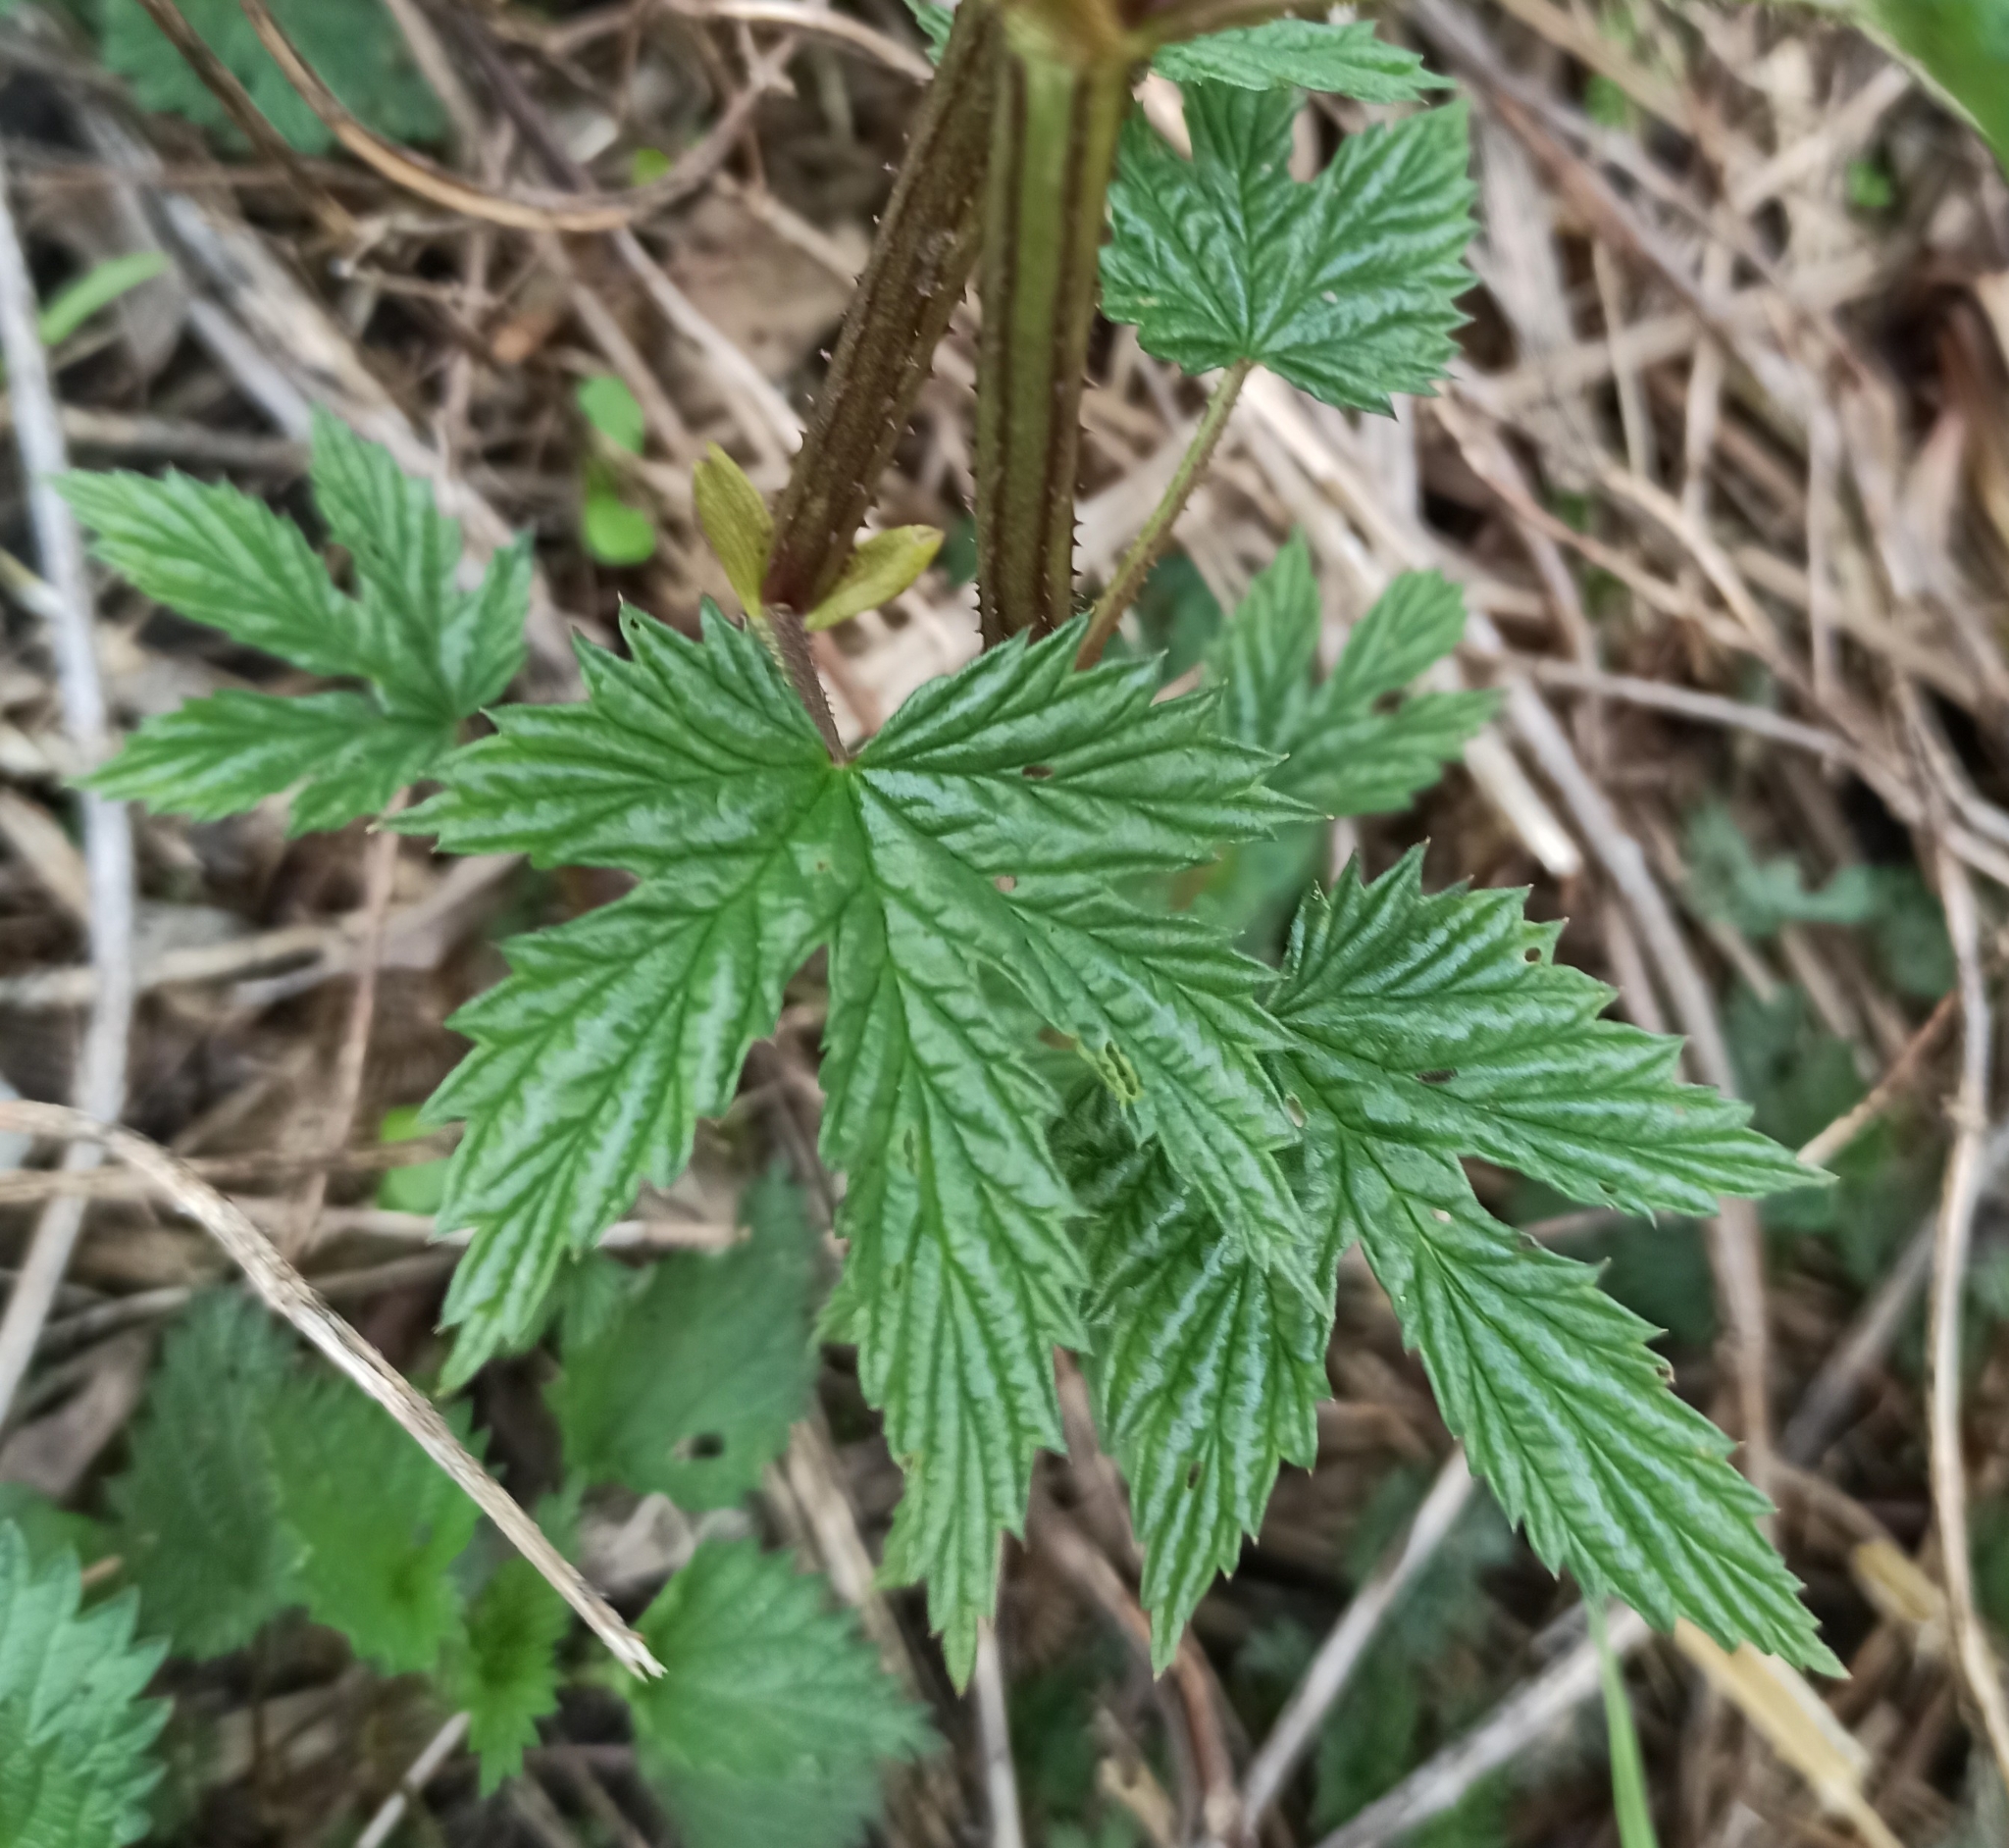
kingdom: Plantae
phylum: Tracheophyta
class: Magnoliopsida
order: Rosales
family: Cannabaceae
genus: Humulus
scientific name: Humulus lupulus
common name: Hop
